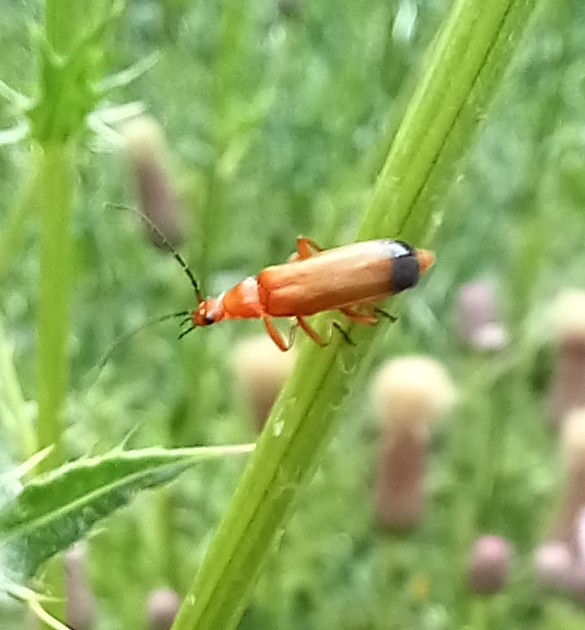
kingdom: Animalia
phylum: Arthropoda
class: Insecta
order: Coleoptera
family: Cantharidae
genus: Rhagonycha
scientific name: Rhagonycha fulva
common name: Common red soldier beetle
